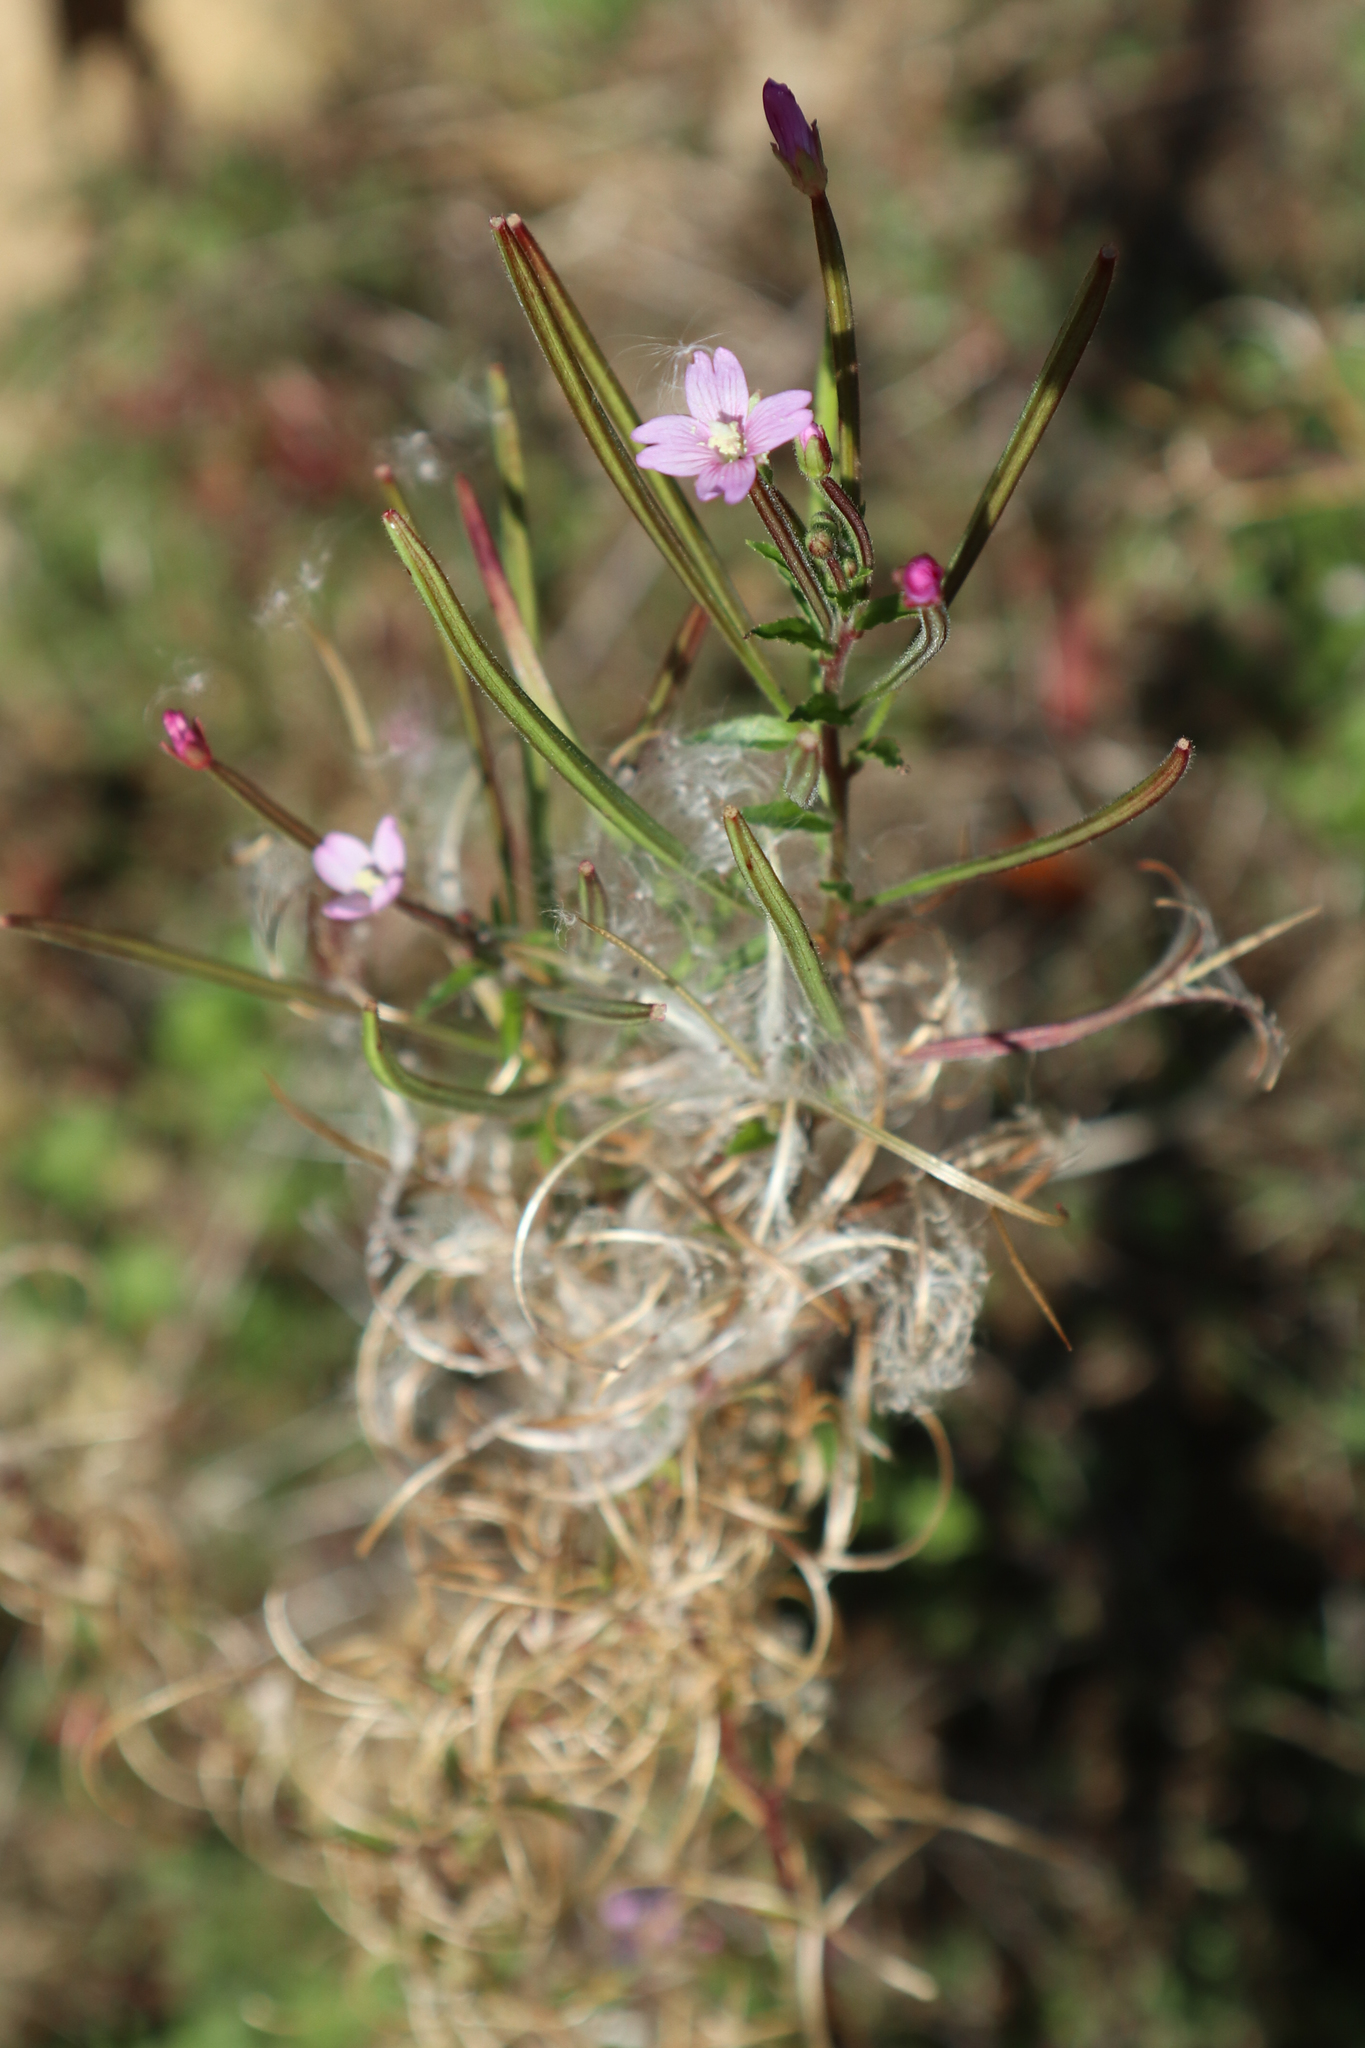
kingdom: Plantae
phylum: Tracheophyta
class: Magnoliopsida
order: Myrtales
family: Onagraceae
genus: Epilobium
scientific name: Epilobium ciliatum
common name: American willowherb
